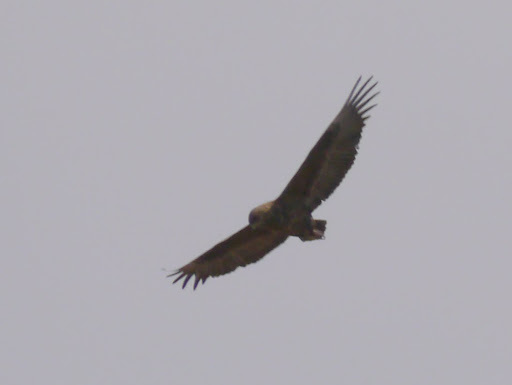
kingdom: Animalia
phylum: Chordata
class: Aves
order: Accipitriformes
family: Accipitridae
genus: Terathopius
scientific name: Terathopius ecaudatus
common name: Bateleur
